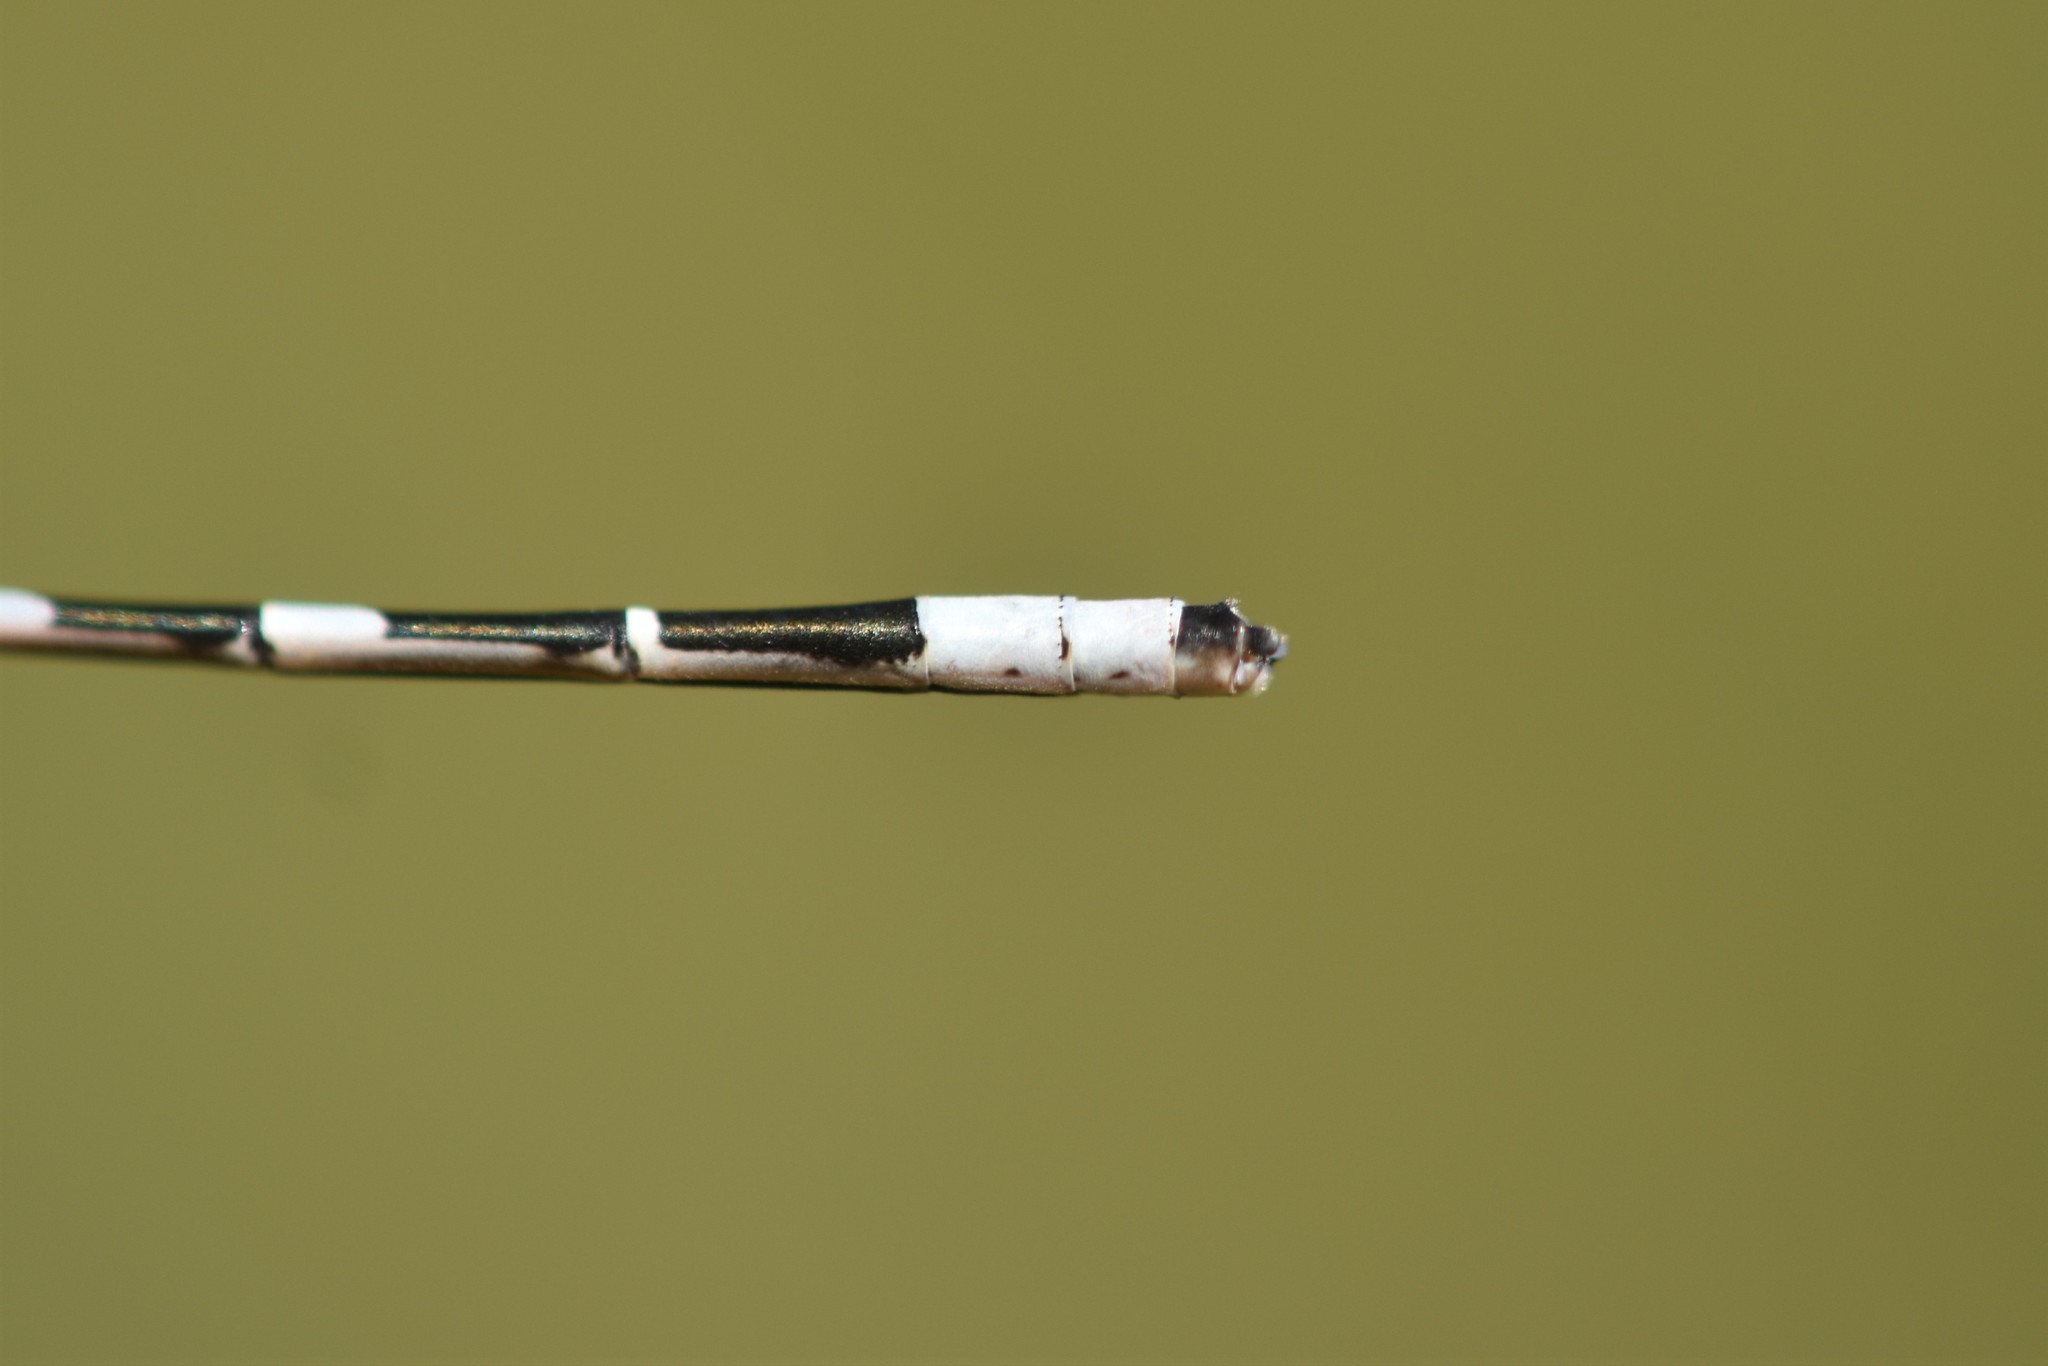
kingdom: Animalia
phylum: Arthropoda
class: Insecta
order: Odonata
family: Coenagrionidae
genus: Enallagma
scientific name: Enallagma carunculatum
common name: Tule bluet
